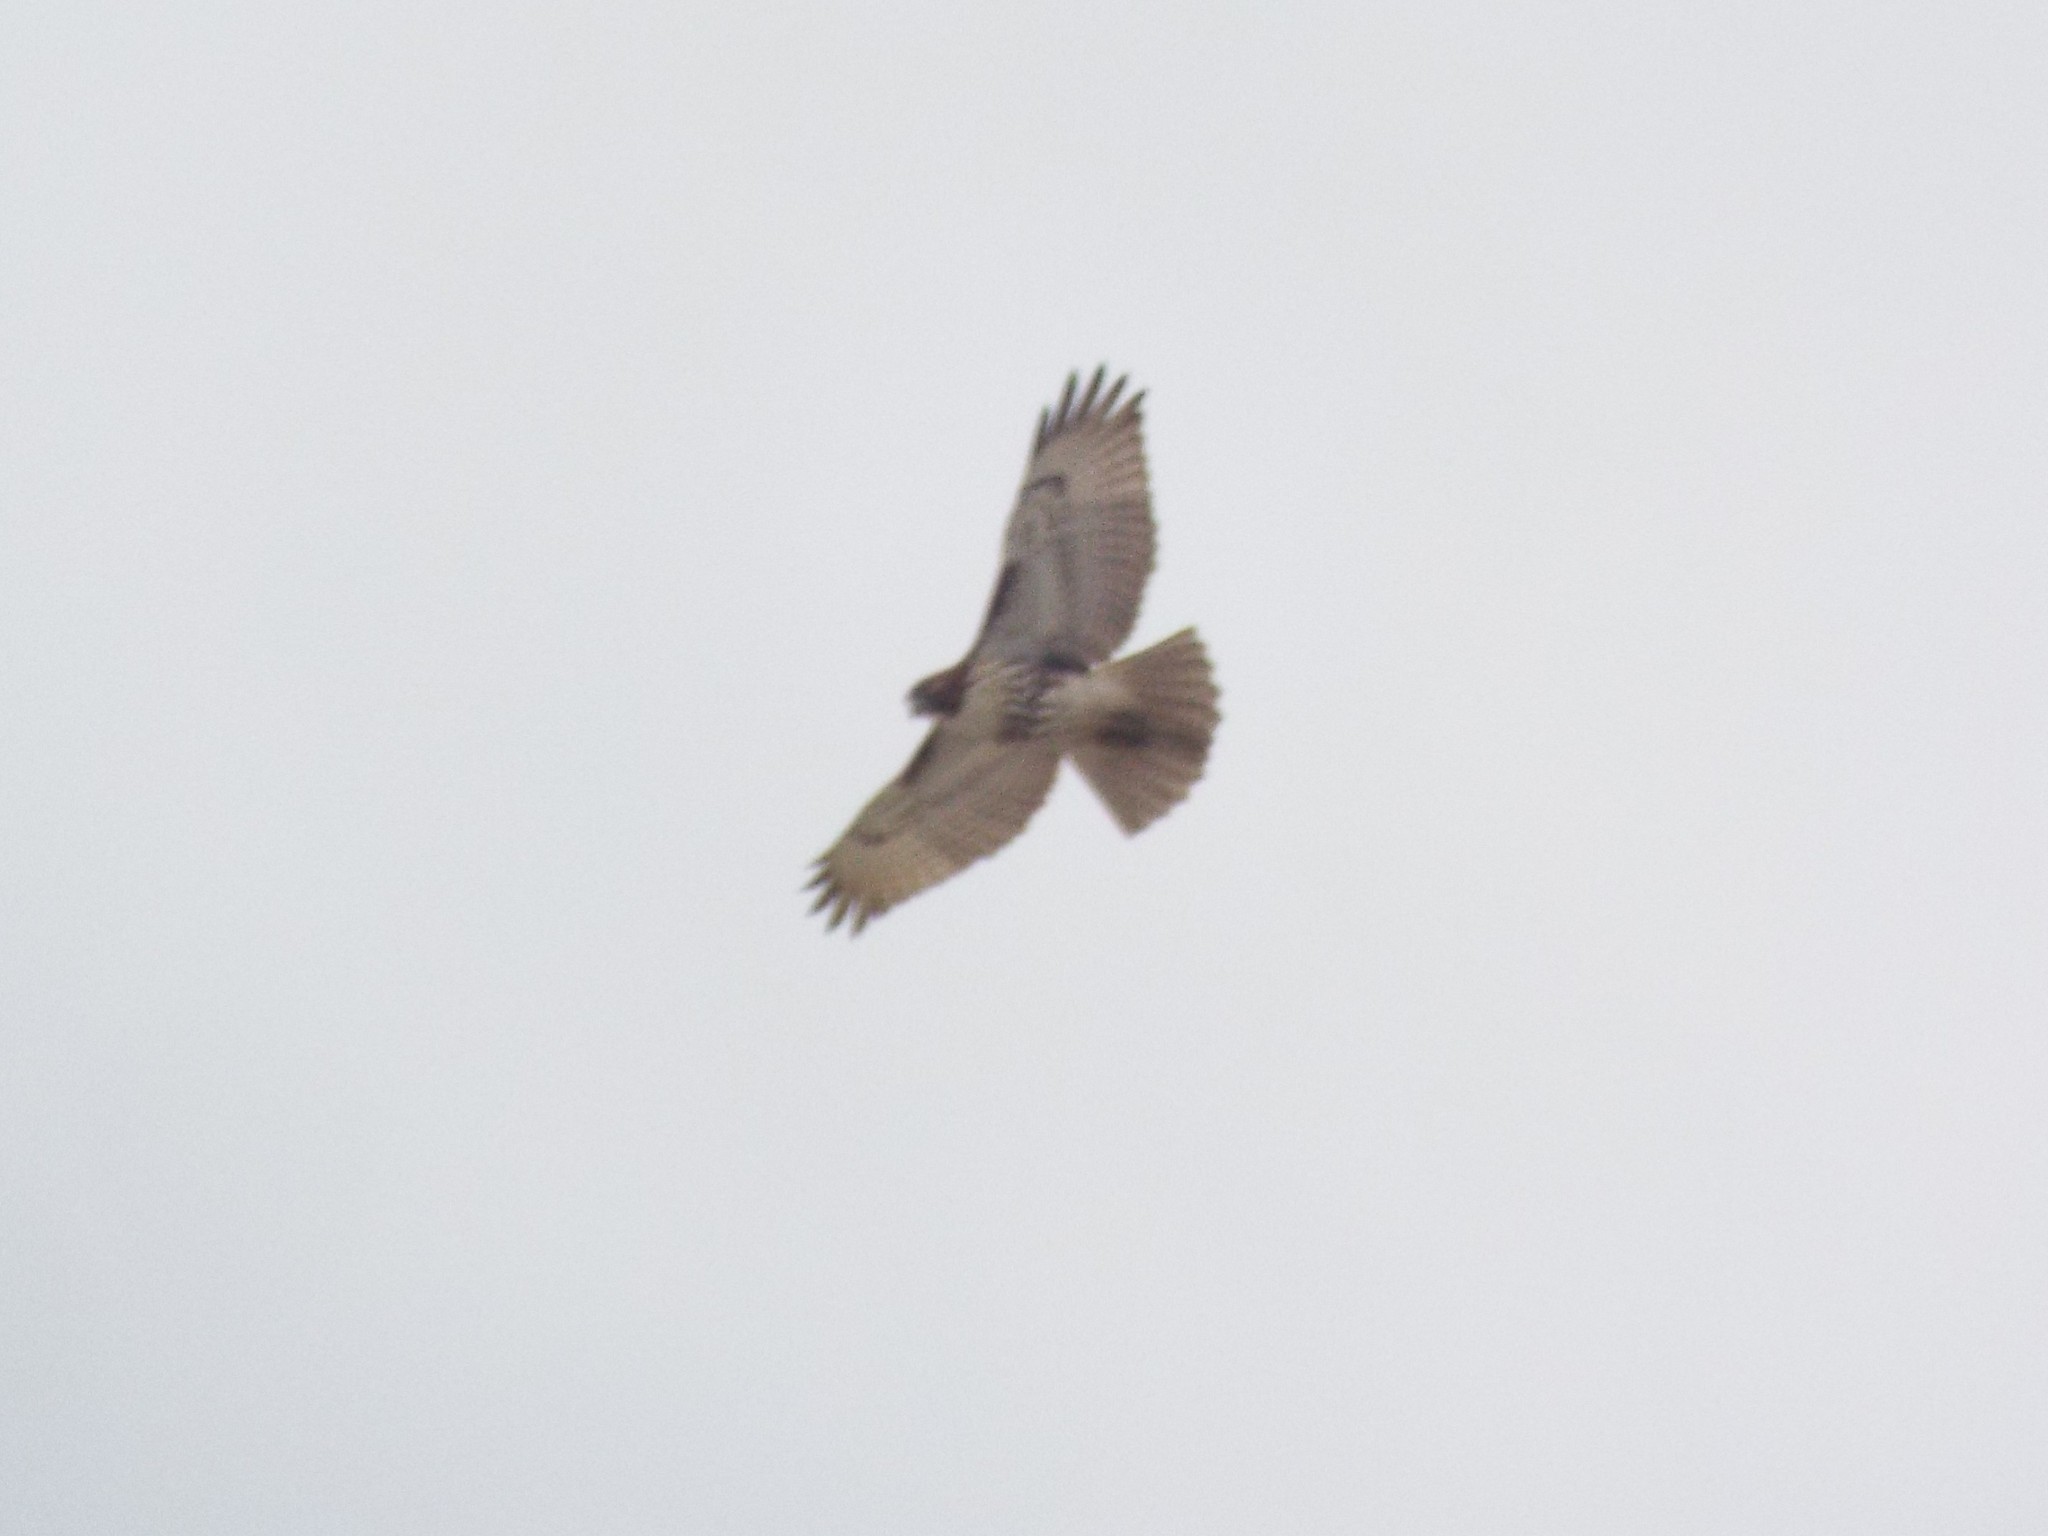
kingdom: Animalia
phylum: Chordata
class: Aves
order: Accipitriformes
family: Accipitridae
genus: Buteo
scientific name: Buteo jamaicensis
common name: Red-tailed hawk
